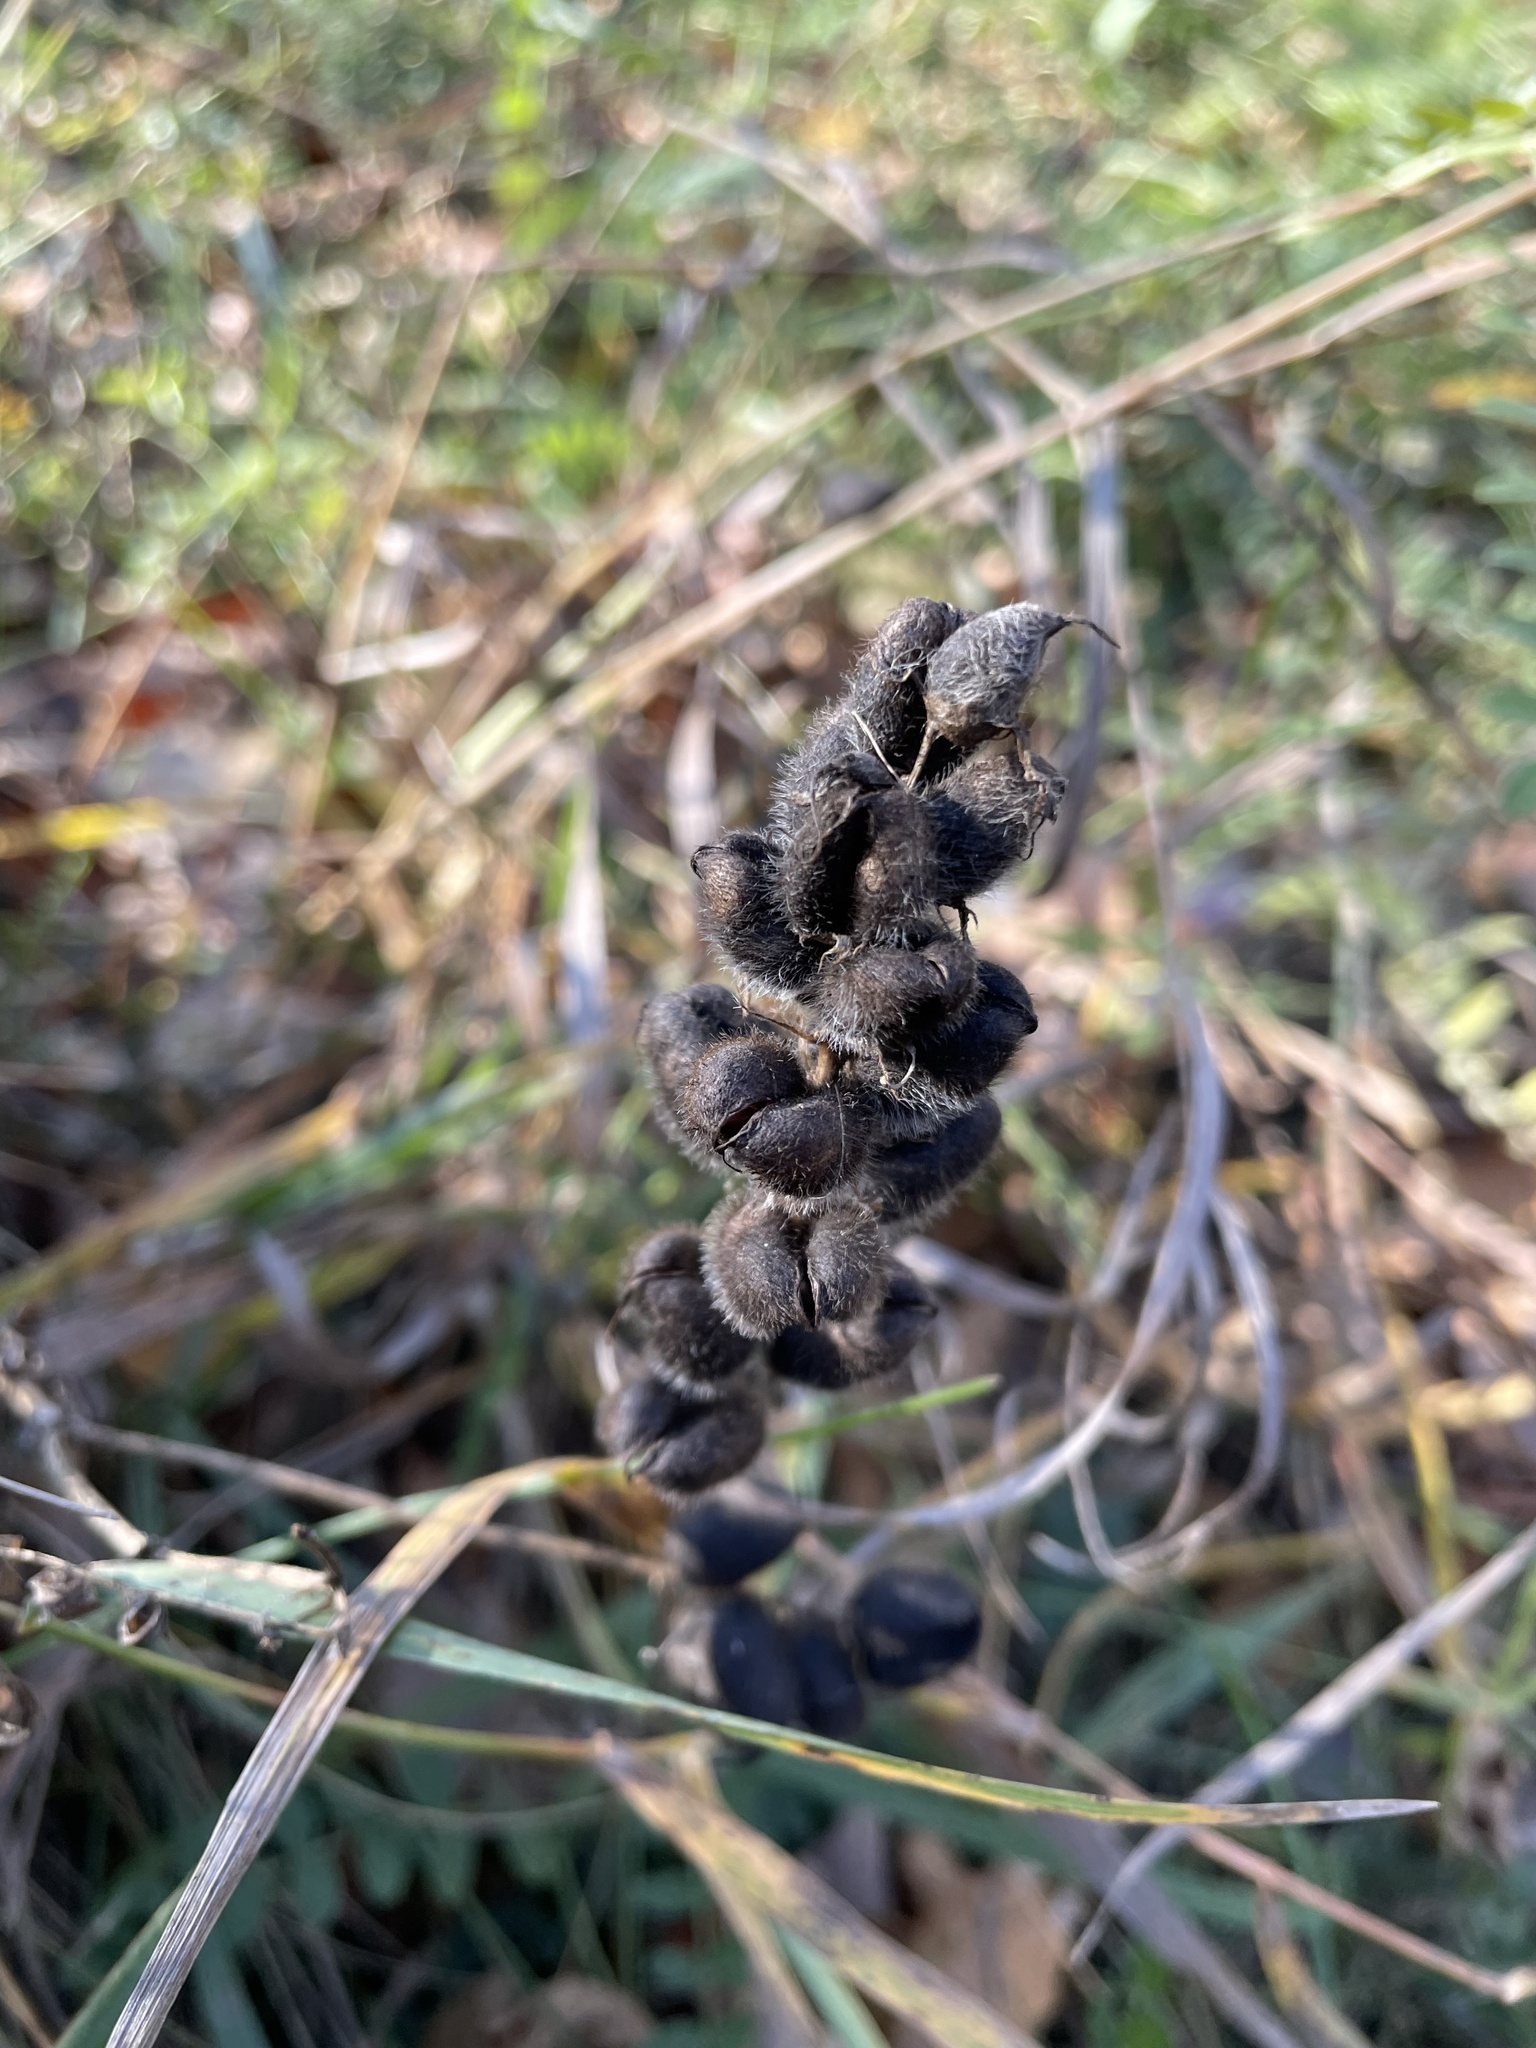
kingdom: Plantae
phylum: Tracheophyta
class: Magnoliopsida
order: Fabales
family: Fabaceae
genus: Astragalus
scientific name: Astragalus cicer
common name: Chick-pea milk-vetch
